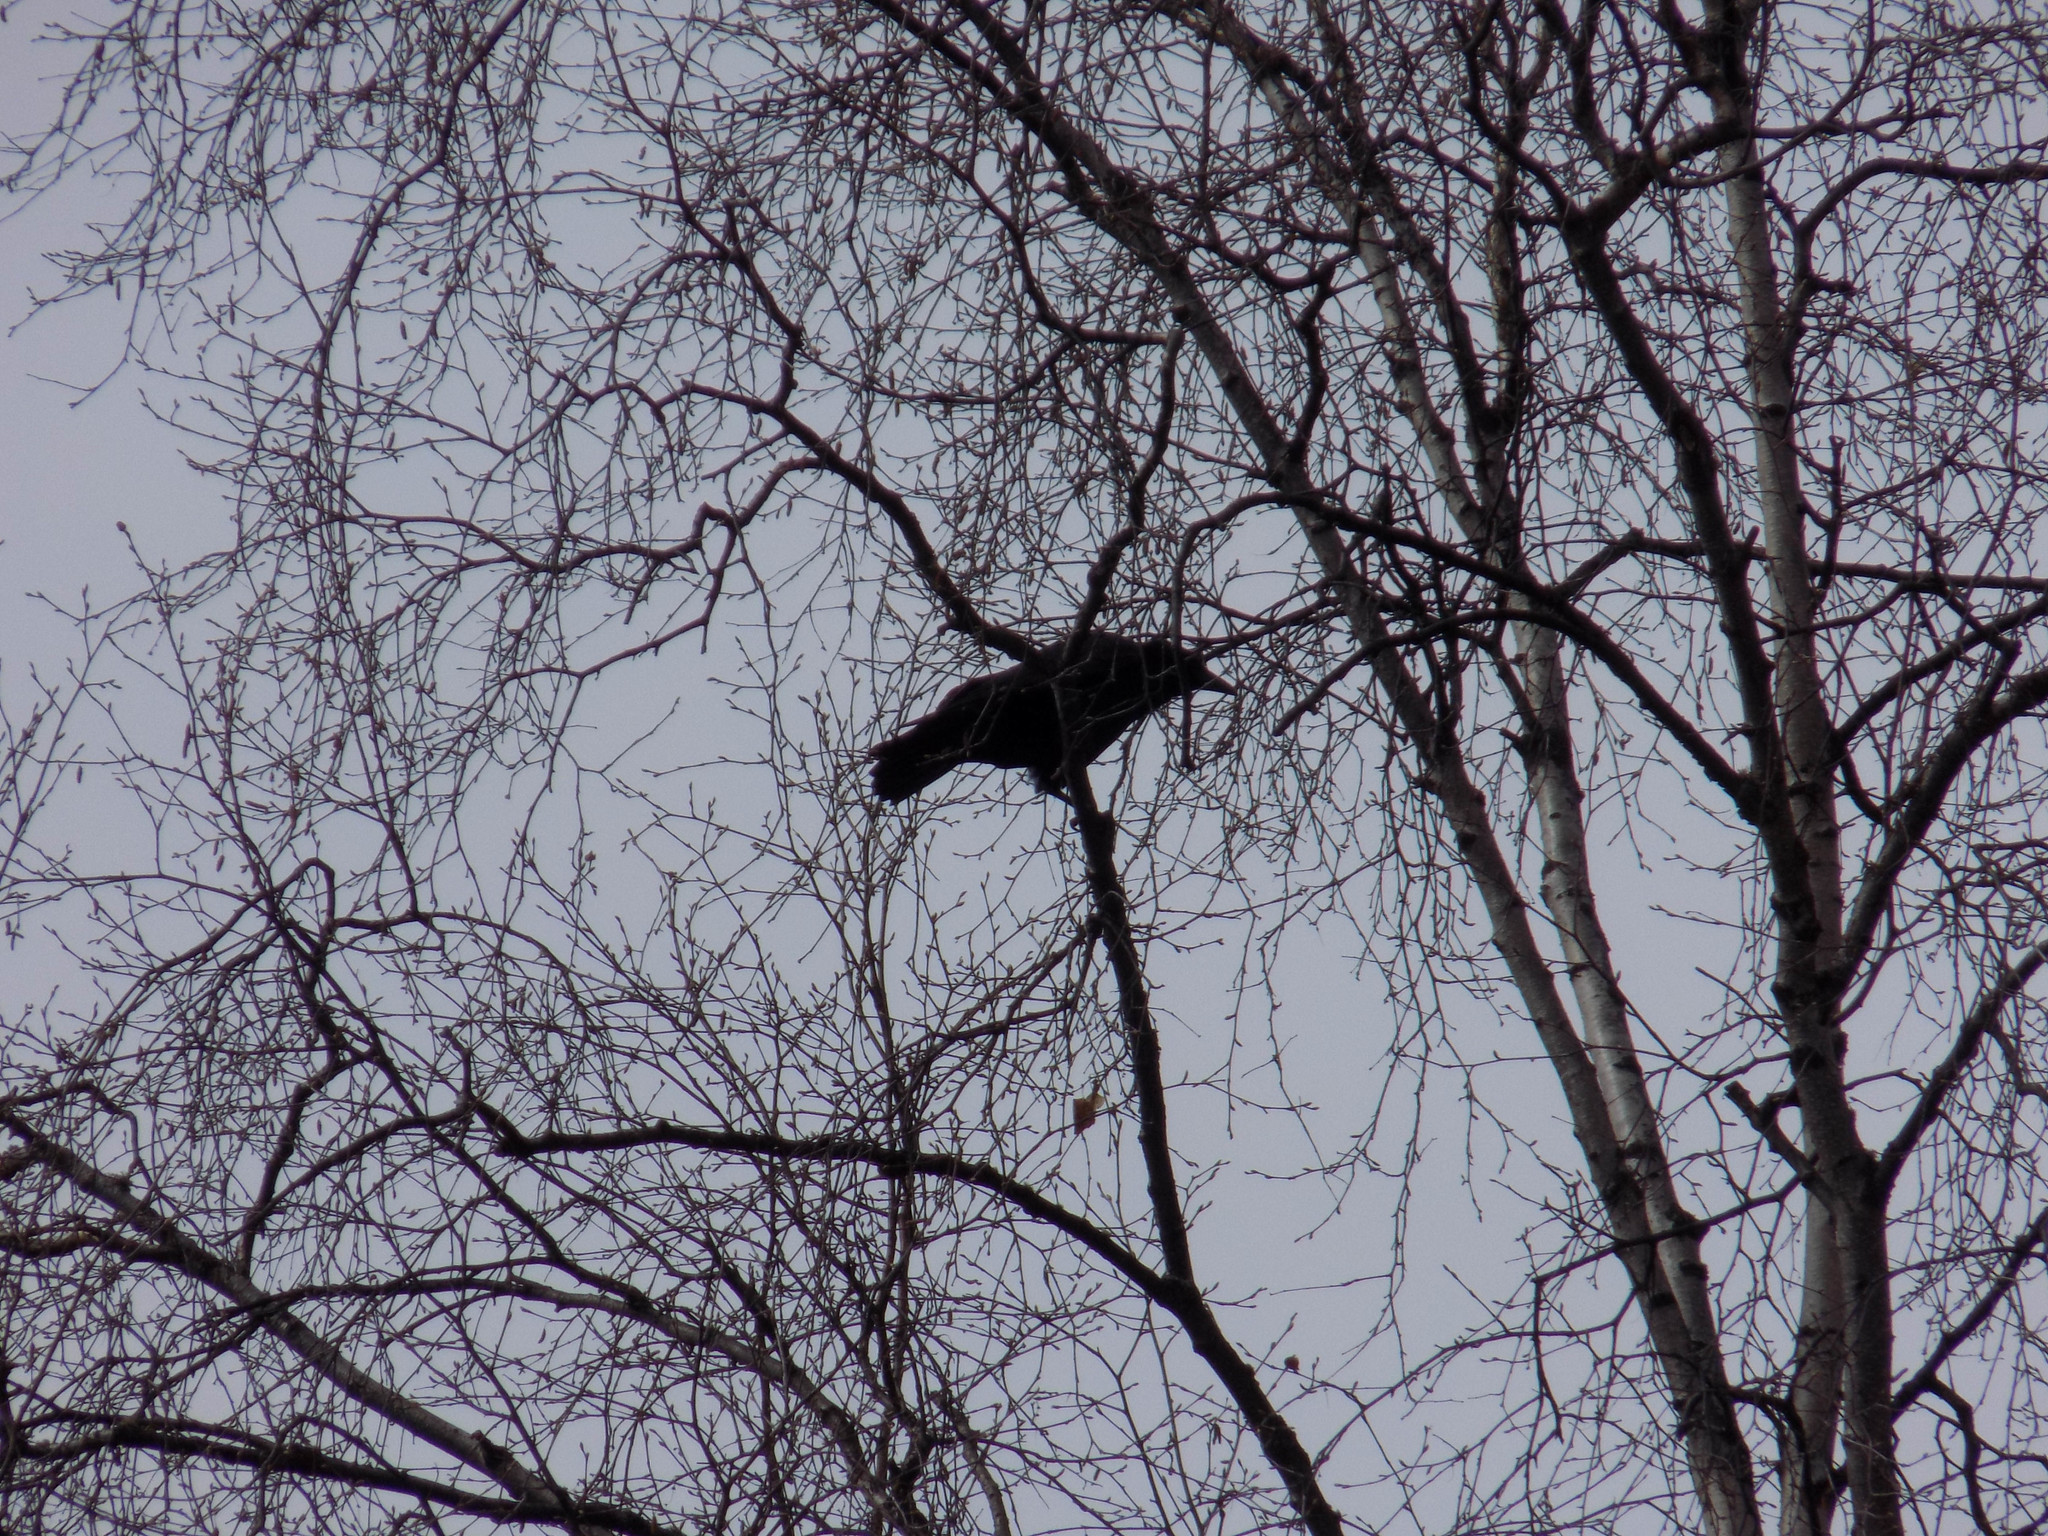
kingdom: Animalia
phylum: Chordata
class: Aves
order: Passeriformes
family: Corvidae
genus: Corvus
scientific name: Corvus corone
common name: Carrion crow
